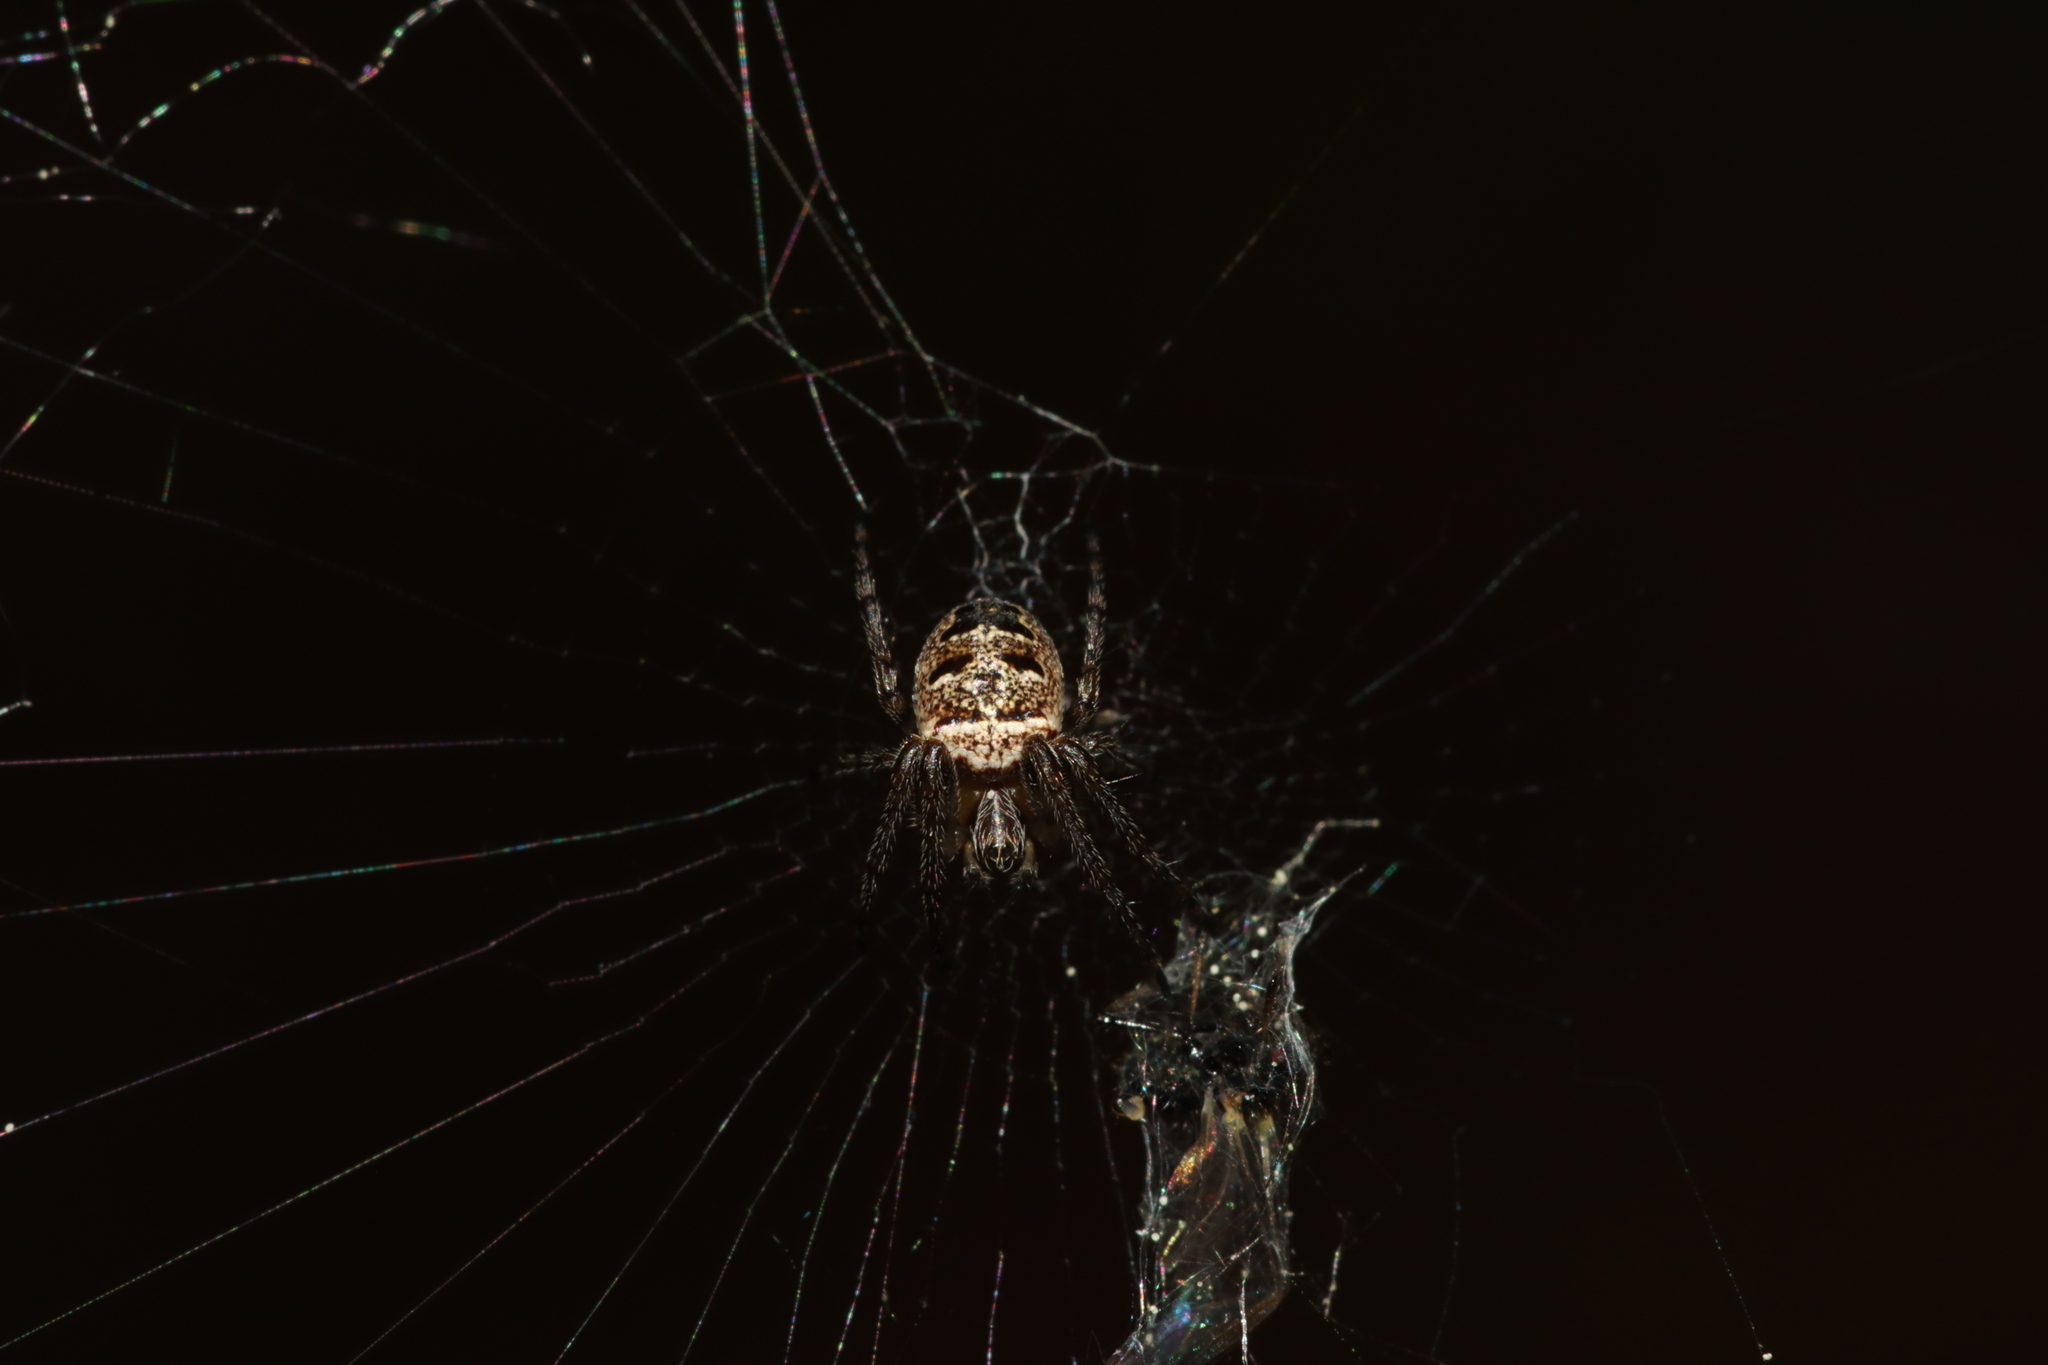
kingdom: Animalia
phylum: Arthropoda
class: Arachnida
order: Araneae
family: Araneidae
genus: Zilla
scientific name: Zilla diodia
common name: Zilla diodia
